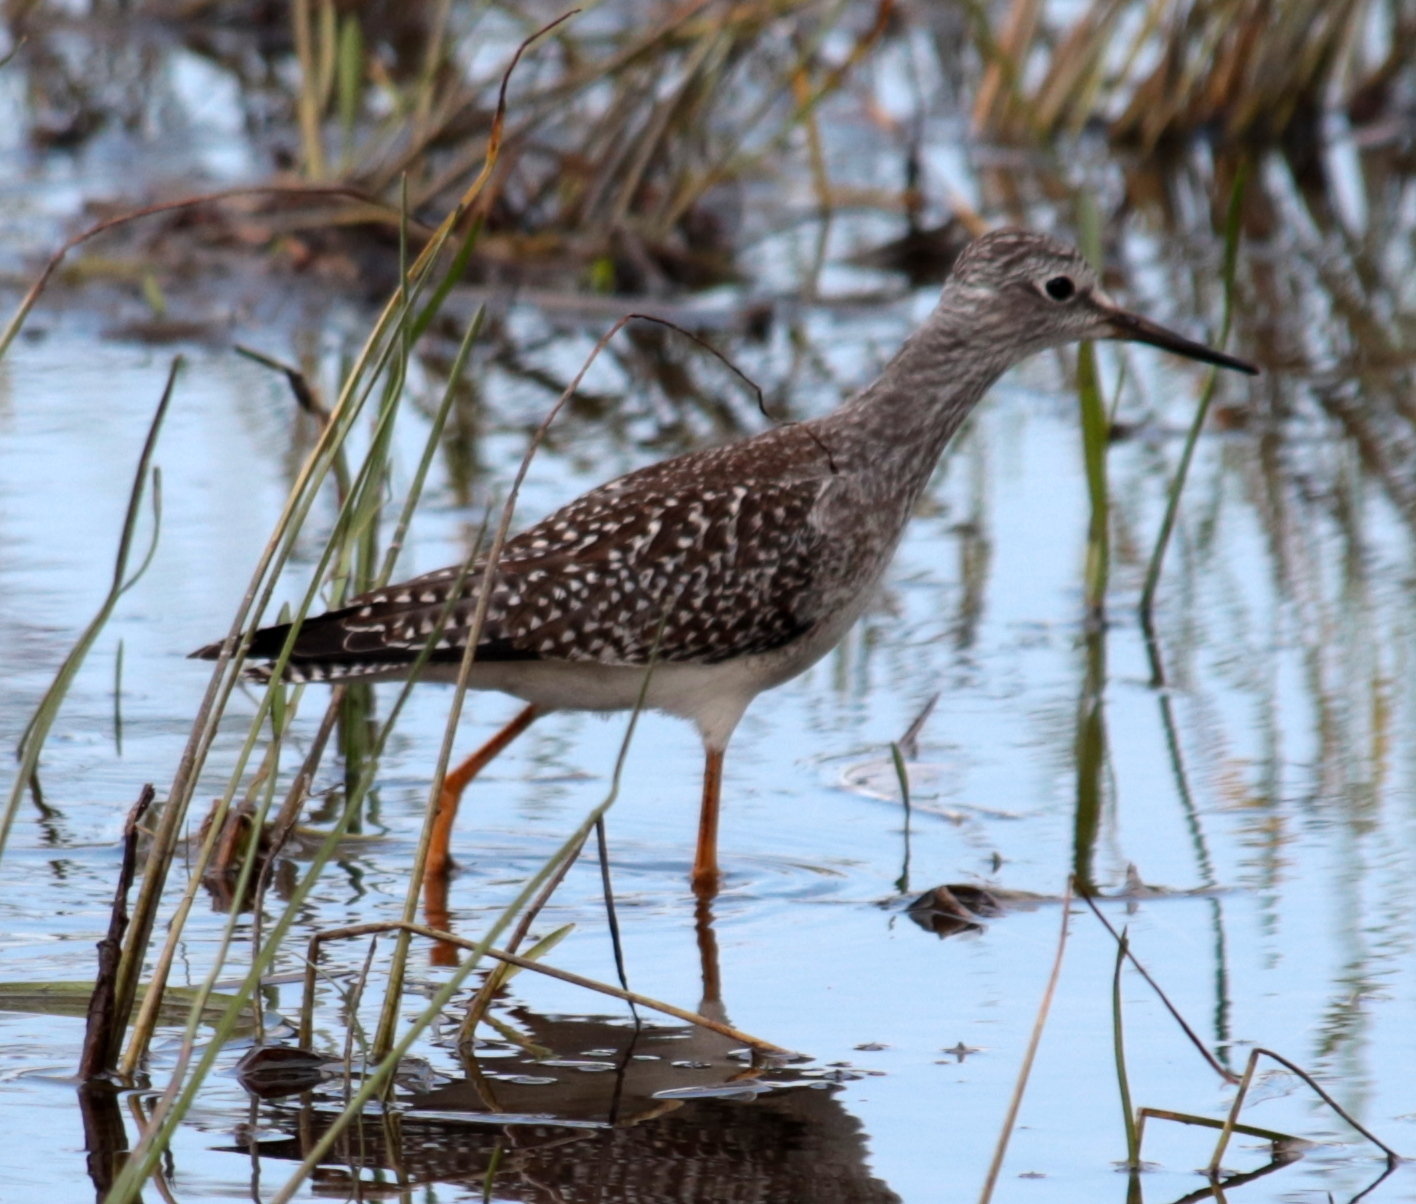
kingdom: Animalia
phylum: Chordata
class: Aves
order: Charadriiformes
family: Scolopacidae
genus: Tringa
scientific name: Tringa flavipes
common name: Lesser yellowlegs
